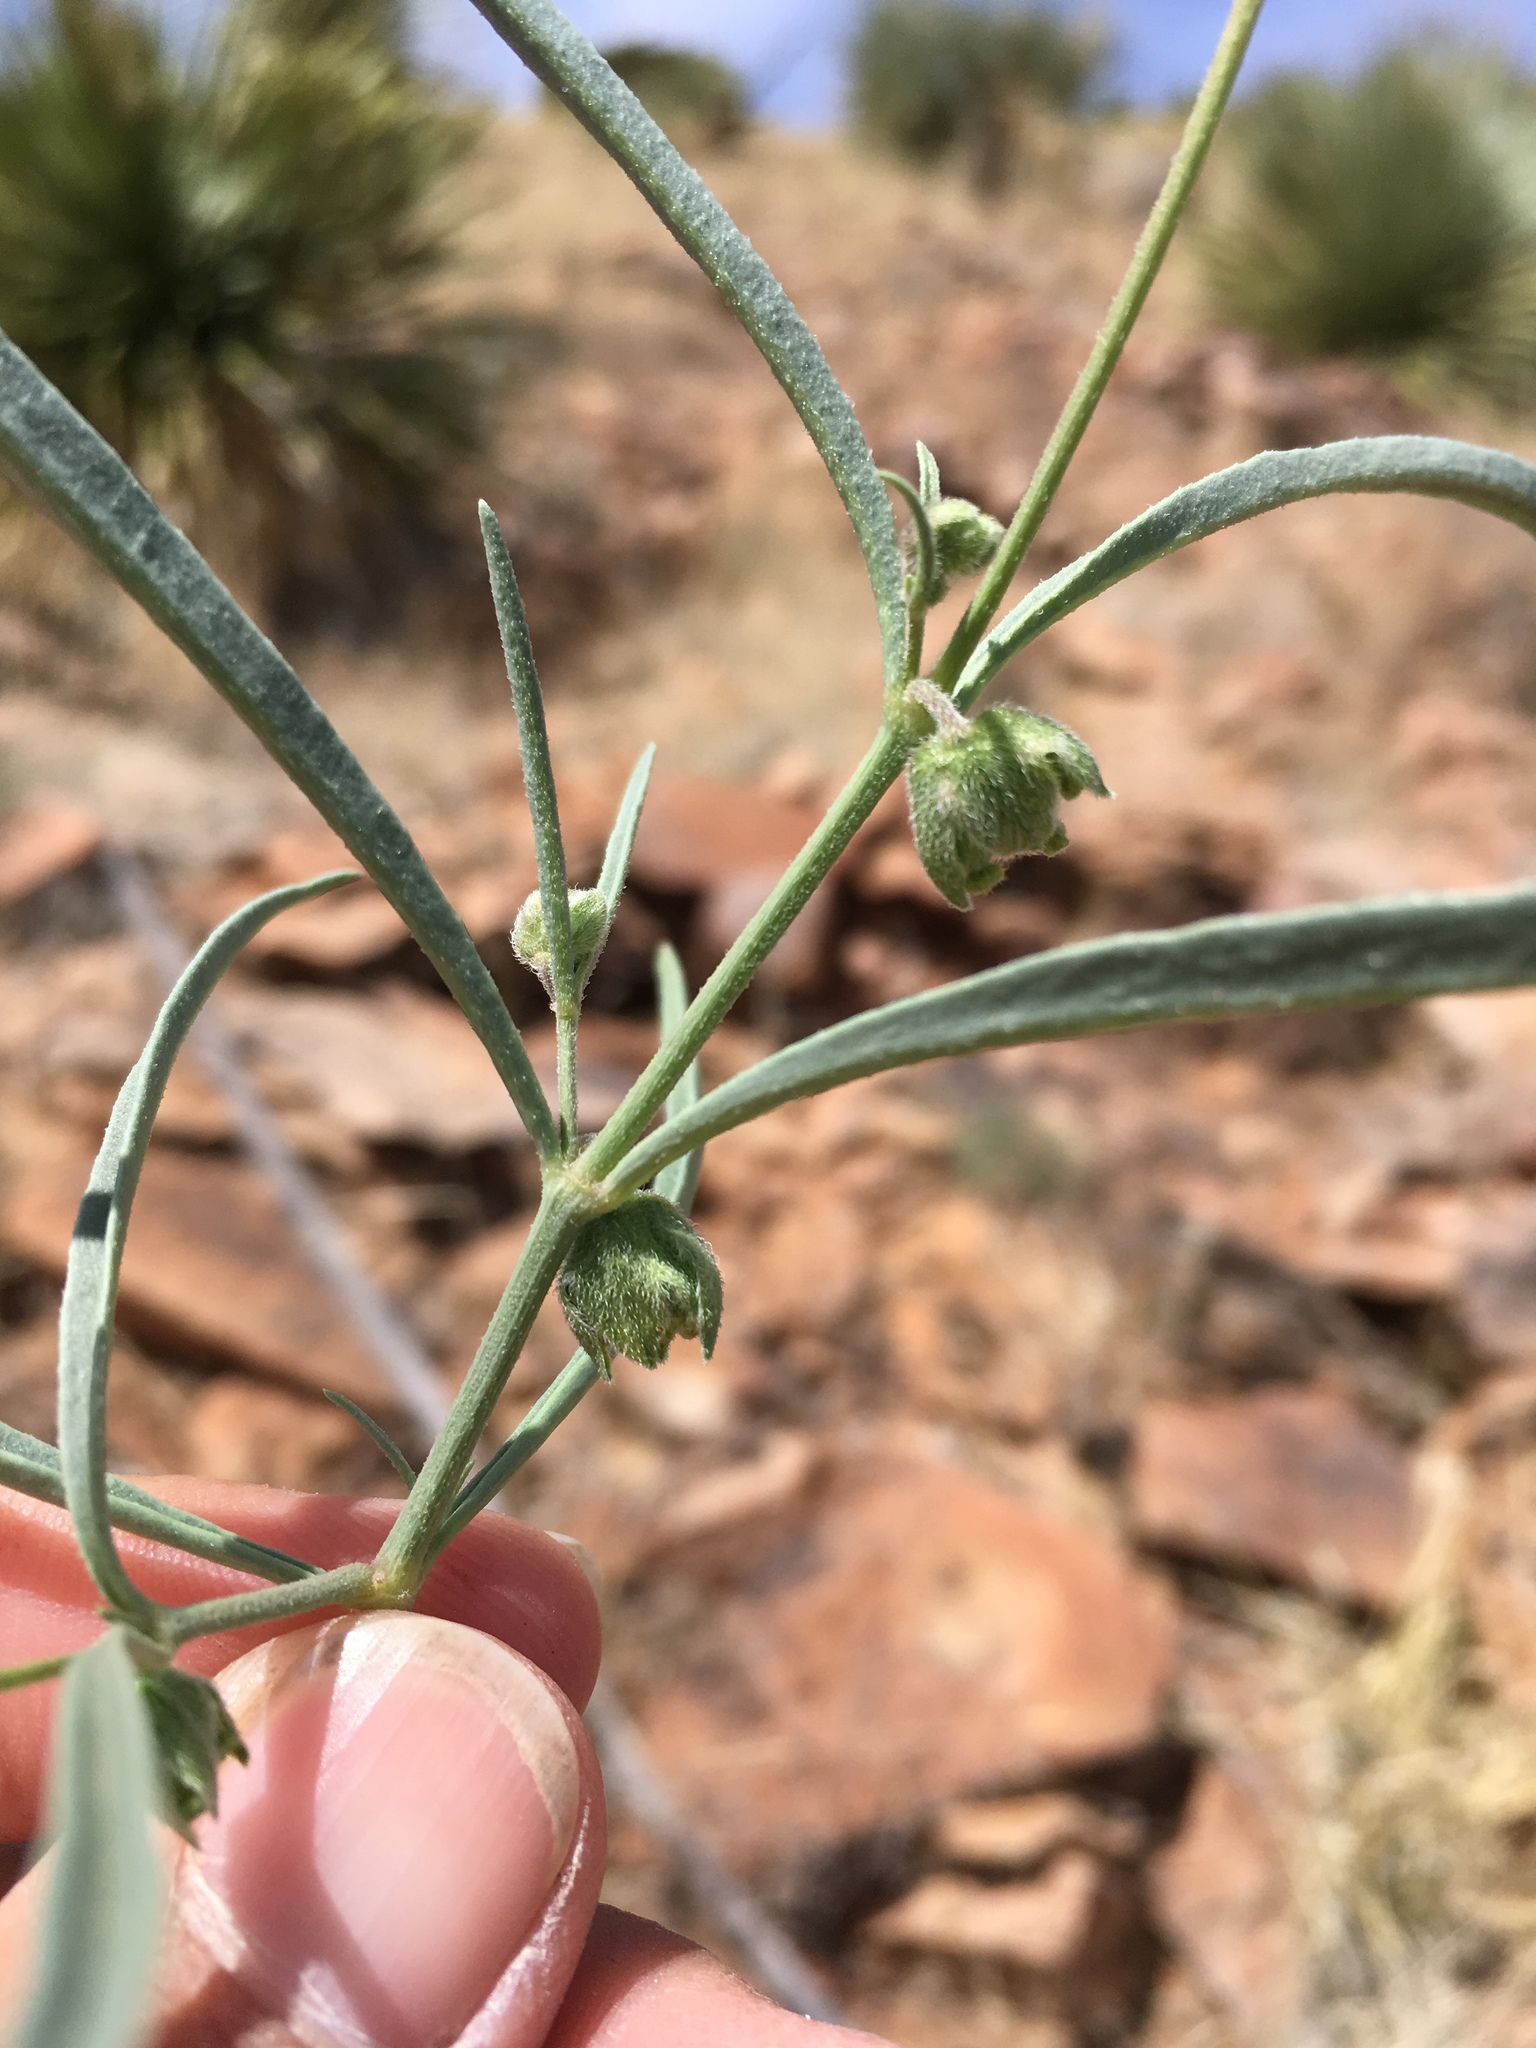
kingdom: Plantae
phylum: Tracheophyta
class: Magnoliopsida
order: Caryophyllales
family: Nyctaginaceae
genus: Mirabilis
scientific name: Mirabilis linearis
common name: Linear-leaved four-o'clock
